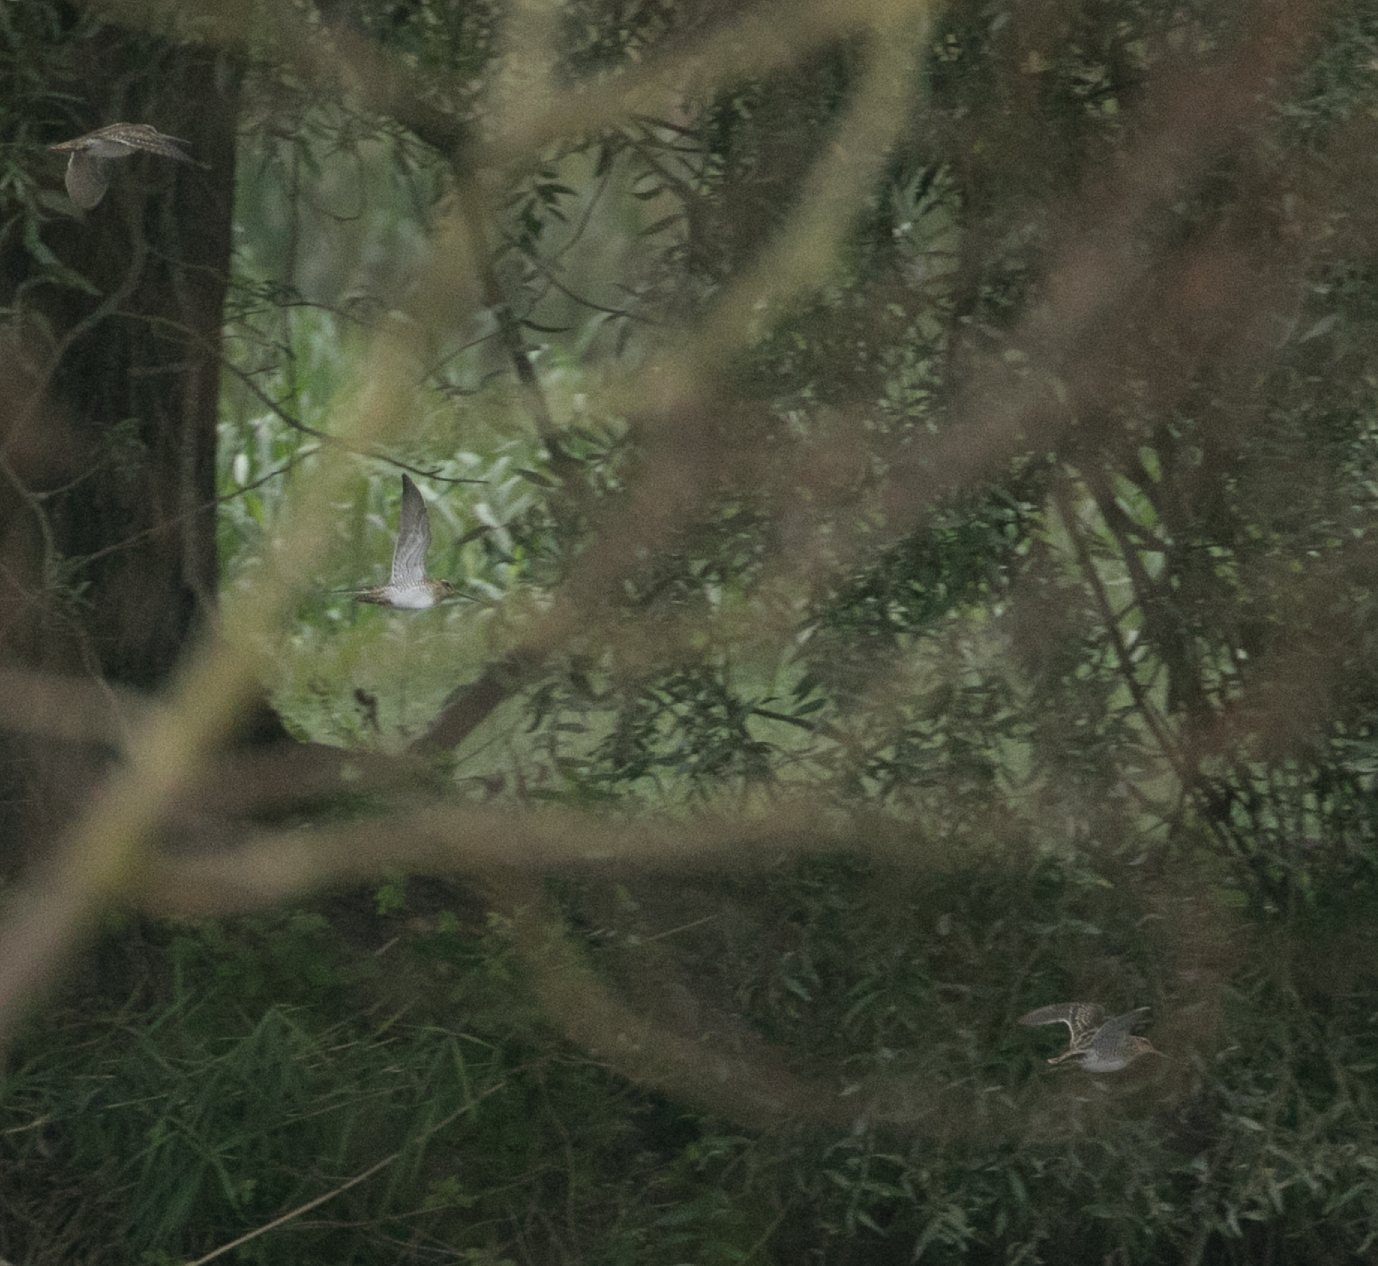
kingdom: Animalia
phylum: Chordata
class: Aves
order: Charadriiformes
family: Scolopacidae
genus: Gallinago
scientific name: Gallinago gallinago
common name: Common snipe
